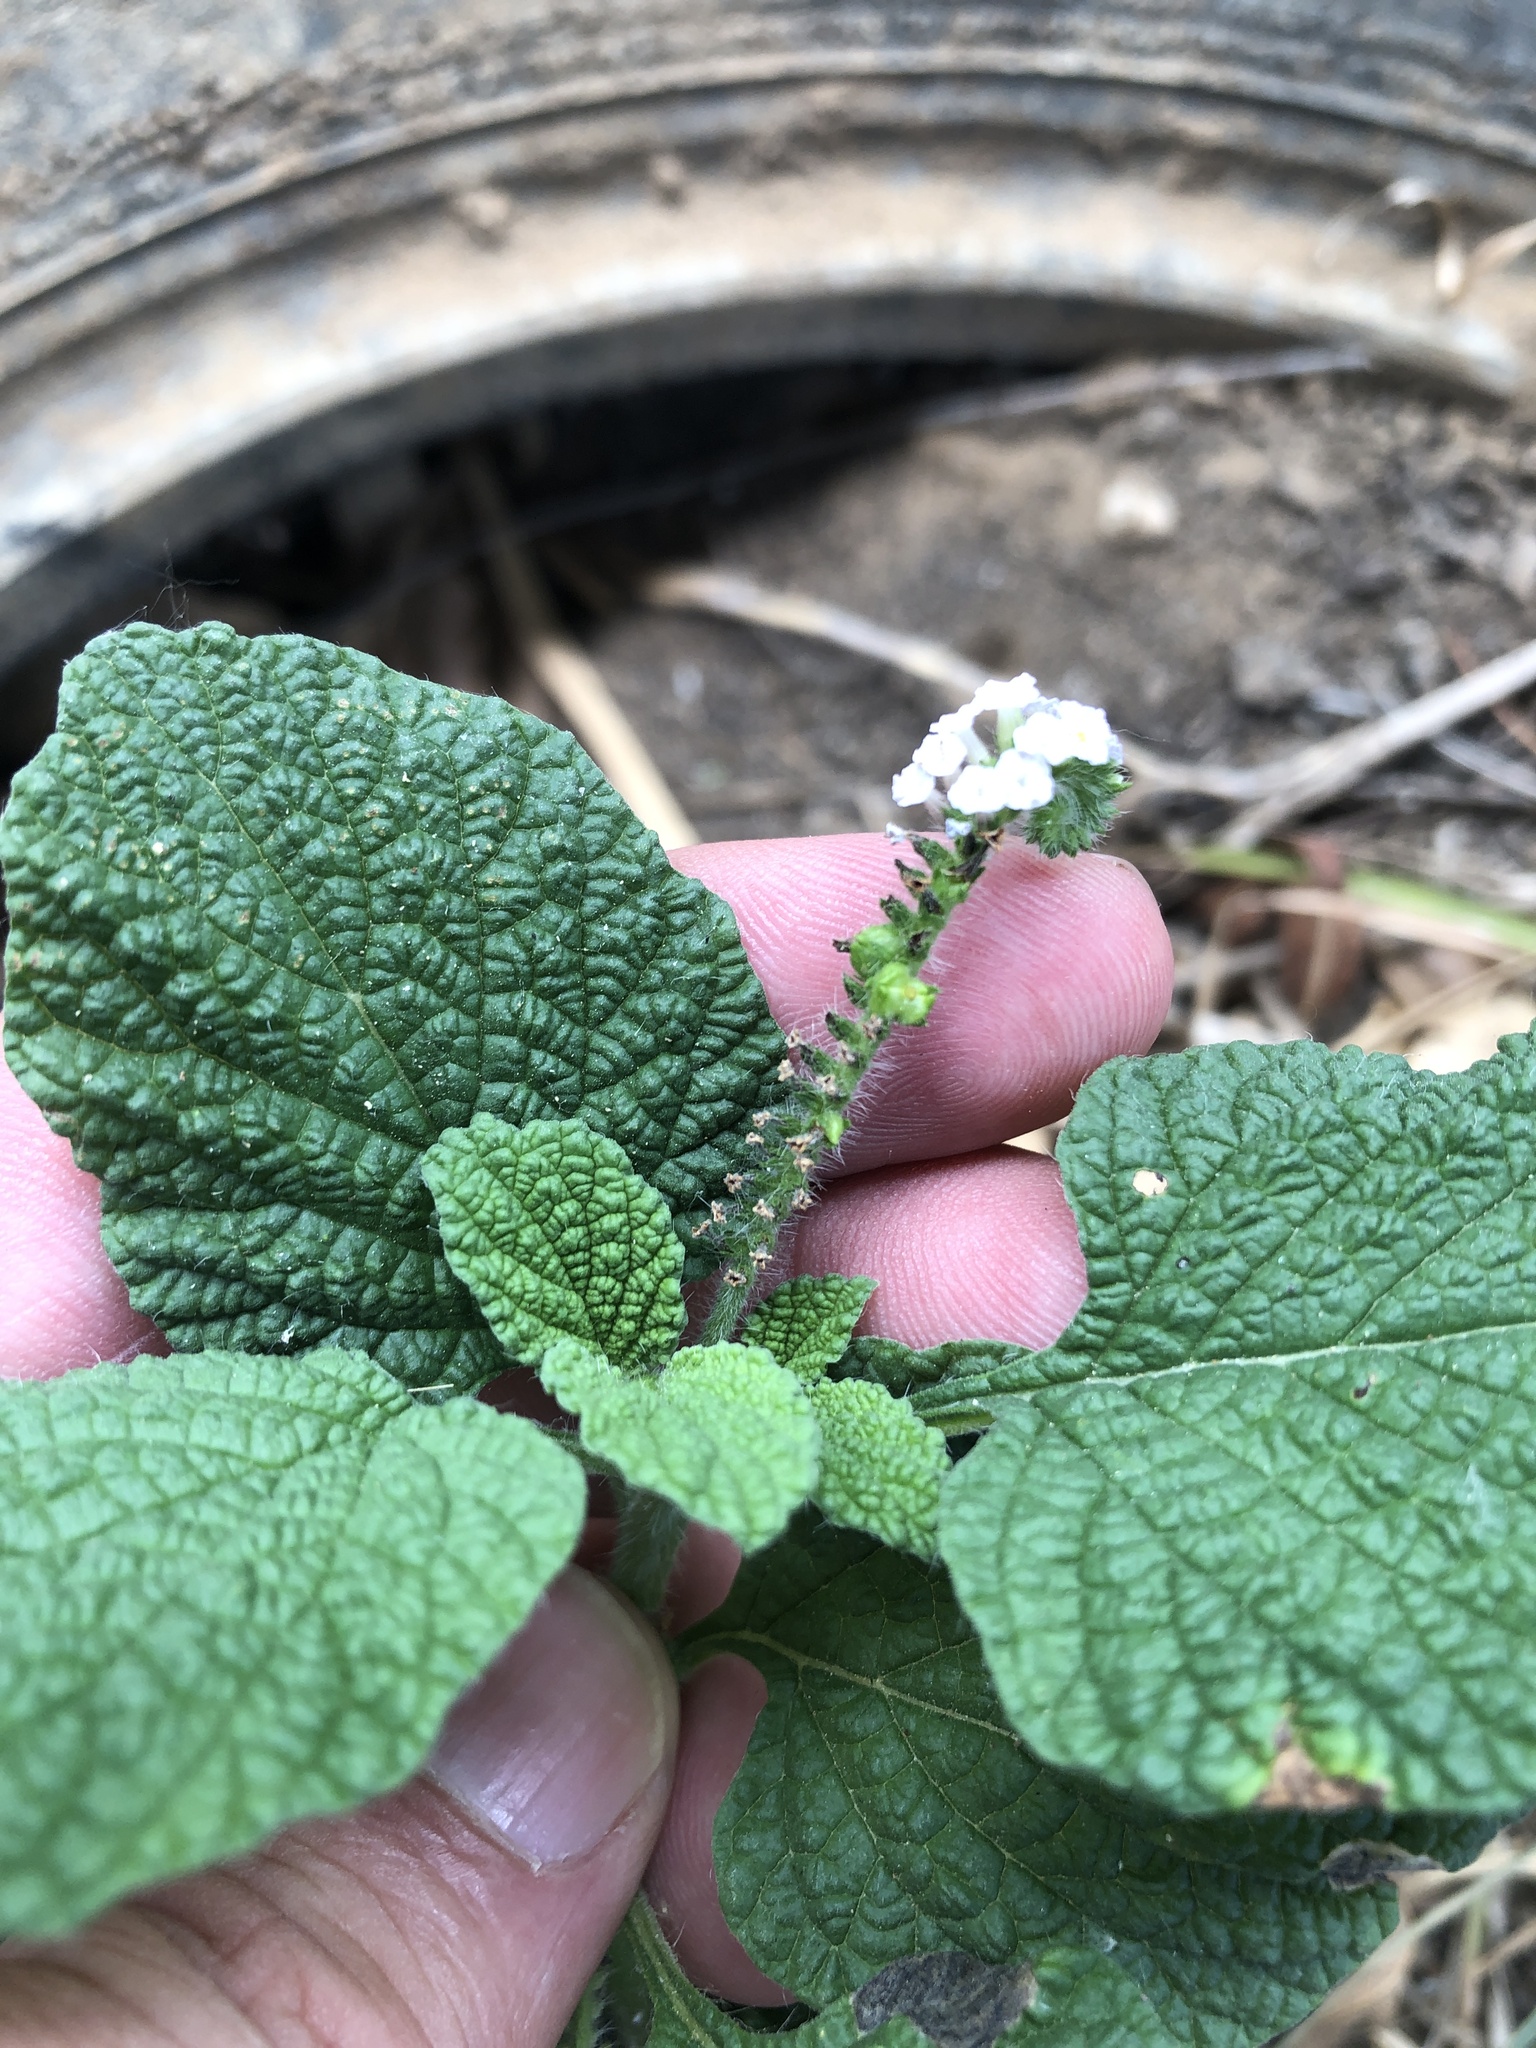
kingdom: Plantae
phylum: Tracheophyta
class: Magnoliopsida
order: Boraginales
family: Heliotropiaceae
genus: Heliotropium
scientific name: Heliotropium indicum
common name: Indian heliotrope
